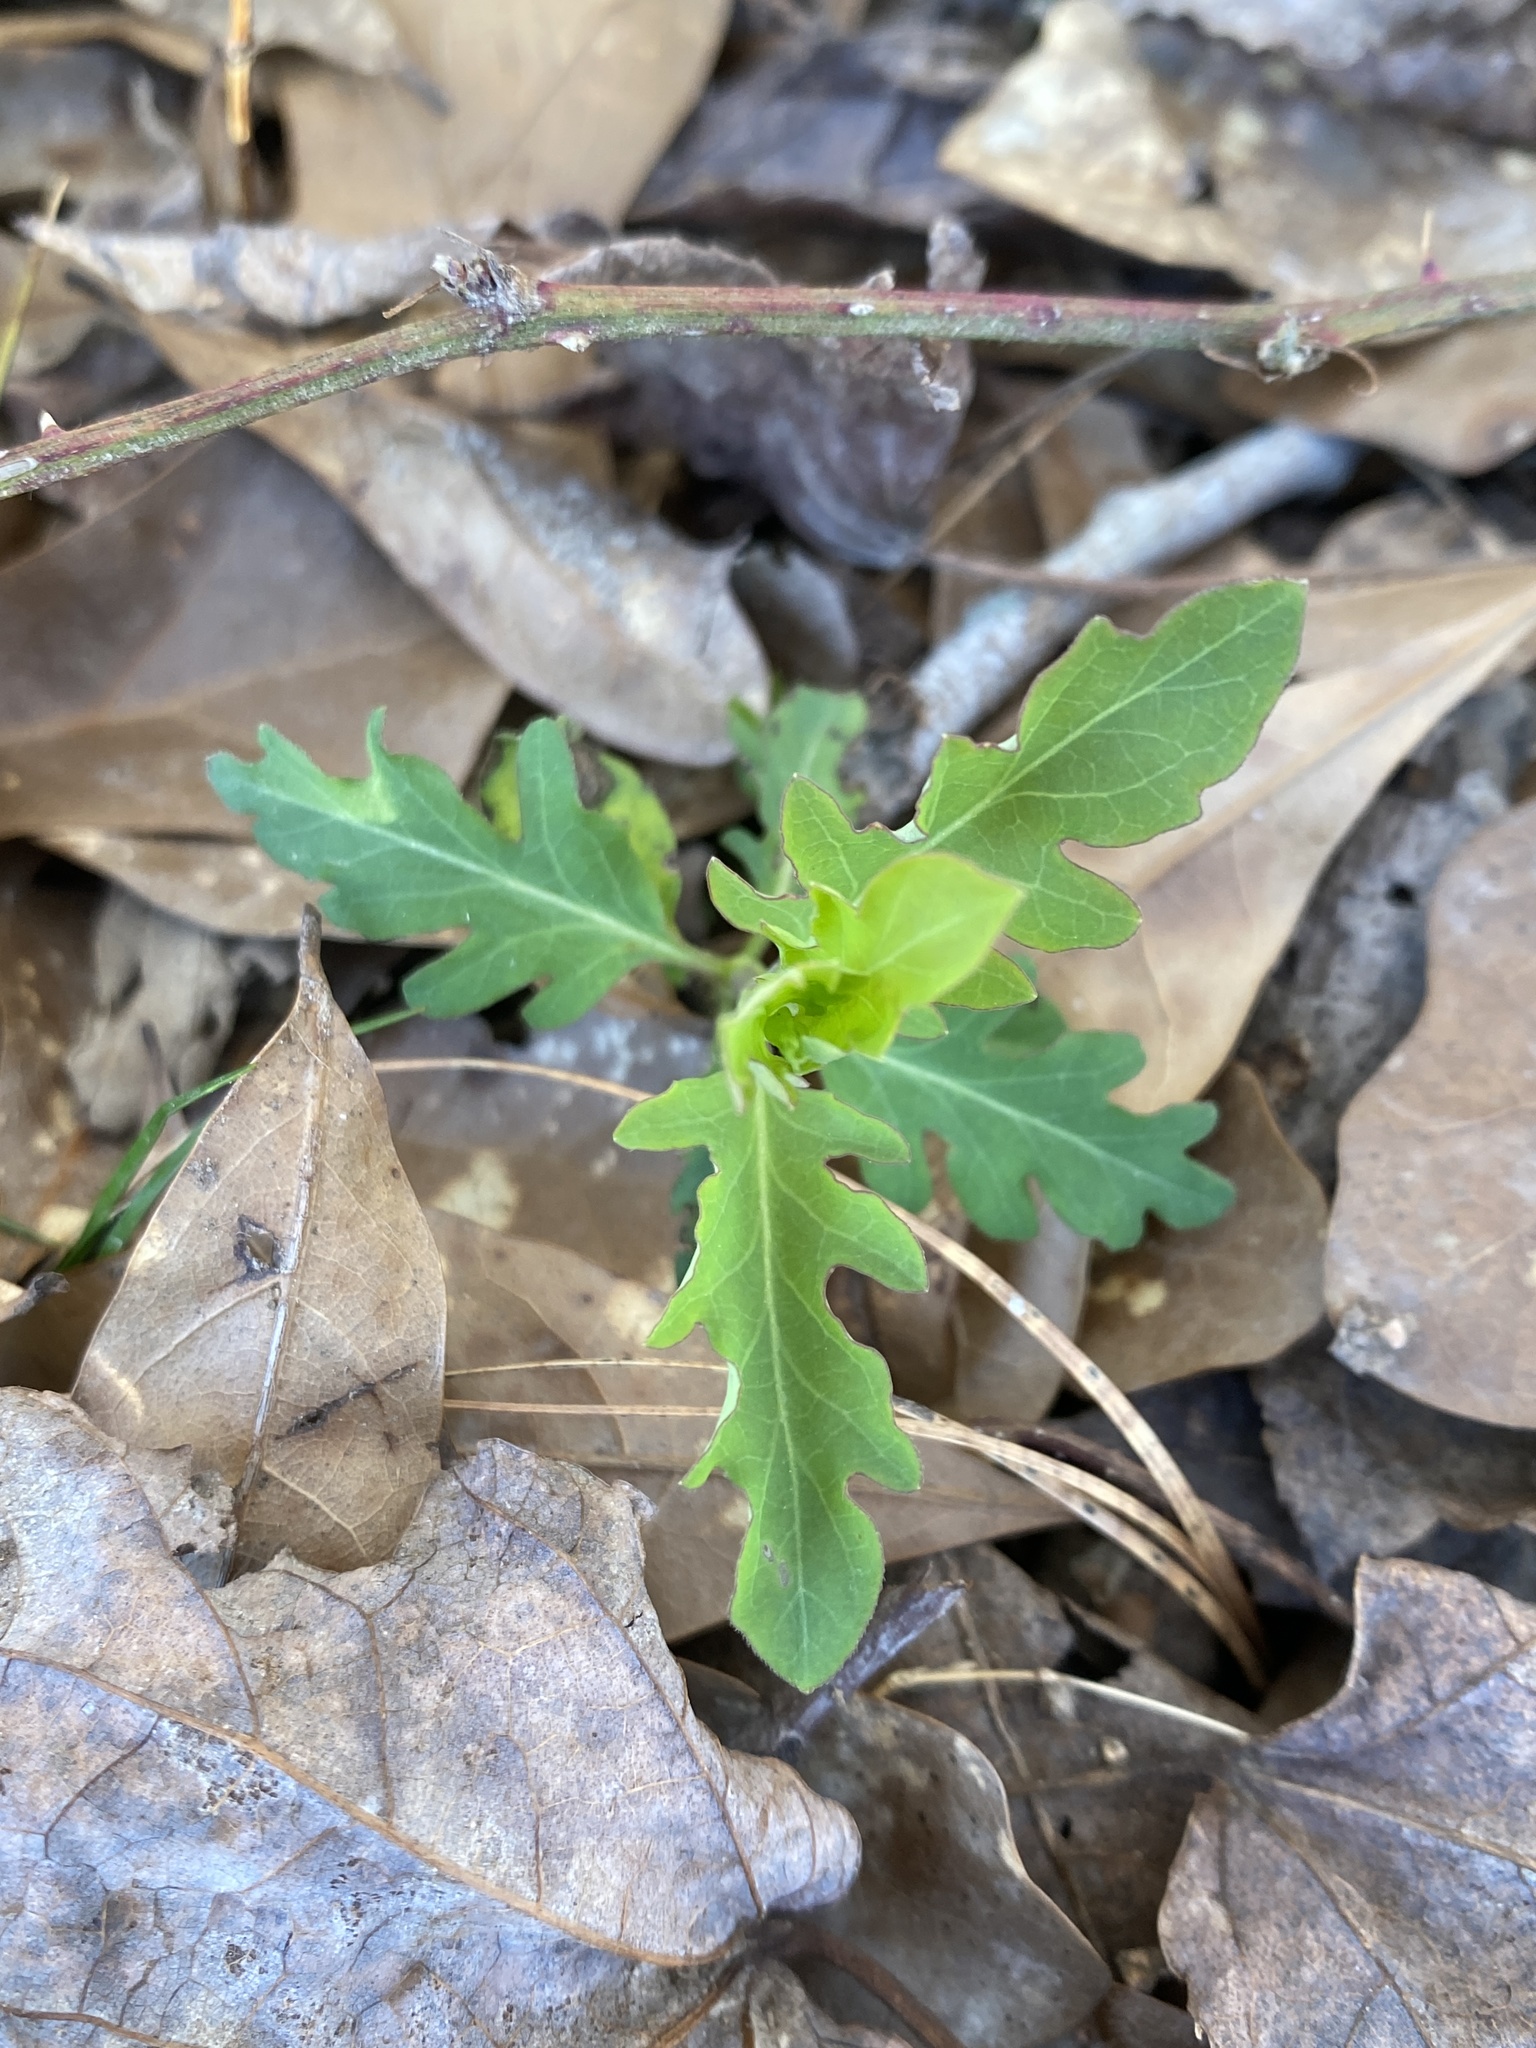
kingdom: Plantae
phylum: Tracheophyta
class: Magnoliopsida
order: Dipsacales
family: Caprifoliaceae
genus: Lonicera
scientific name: Lonicera japonica
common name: Japanese honeysuckle
